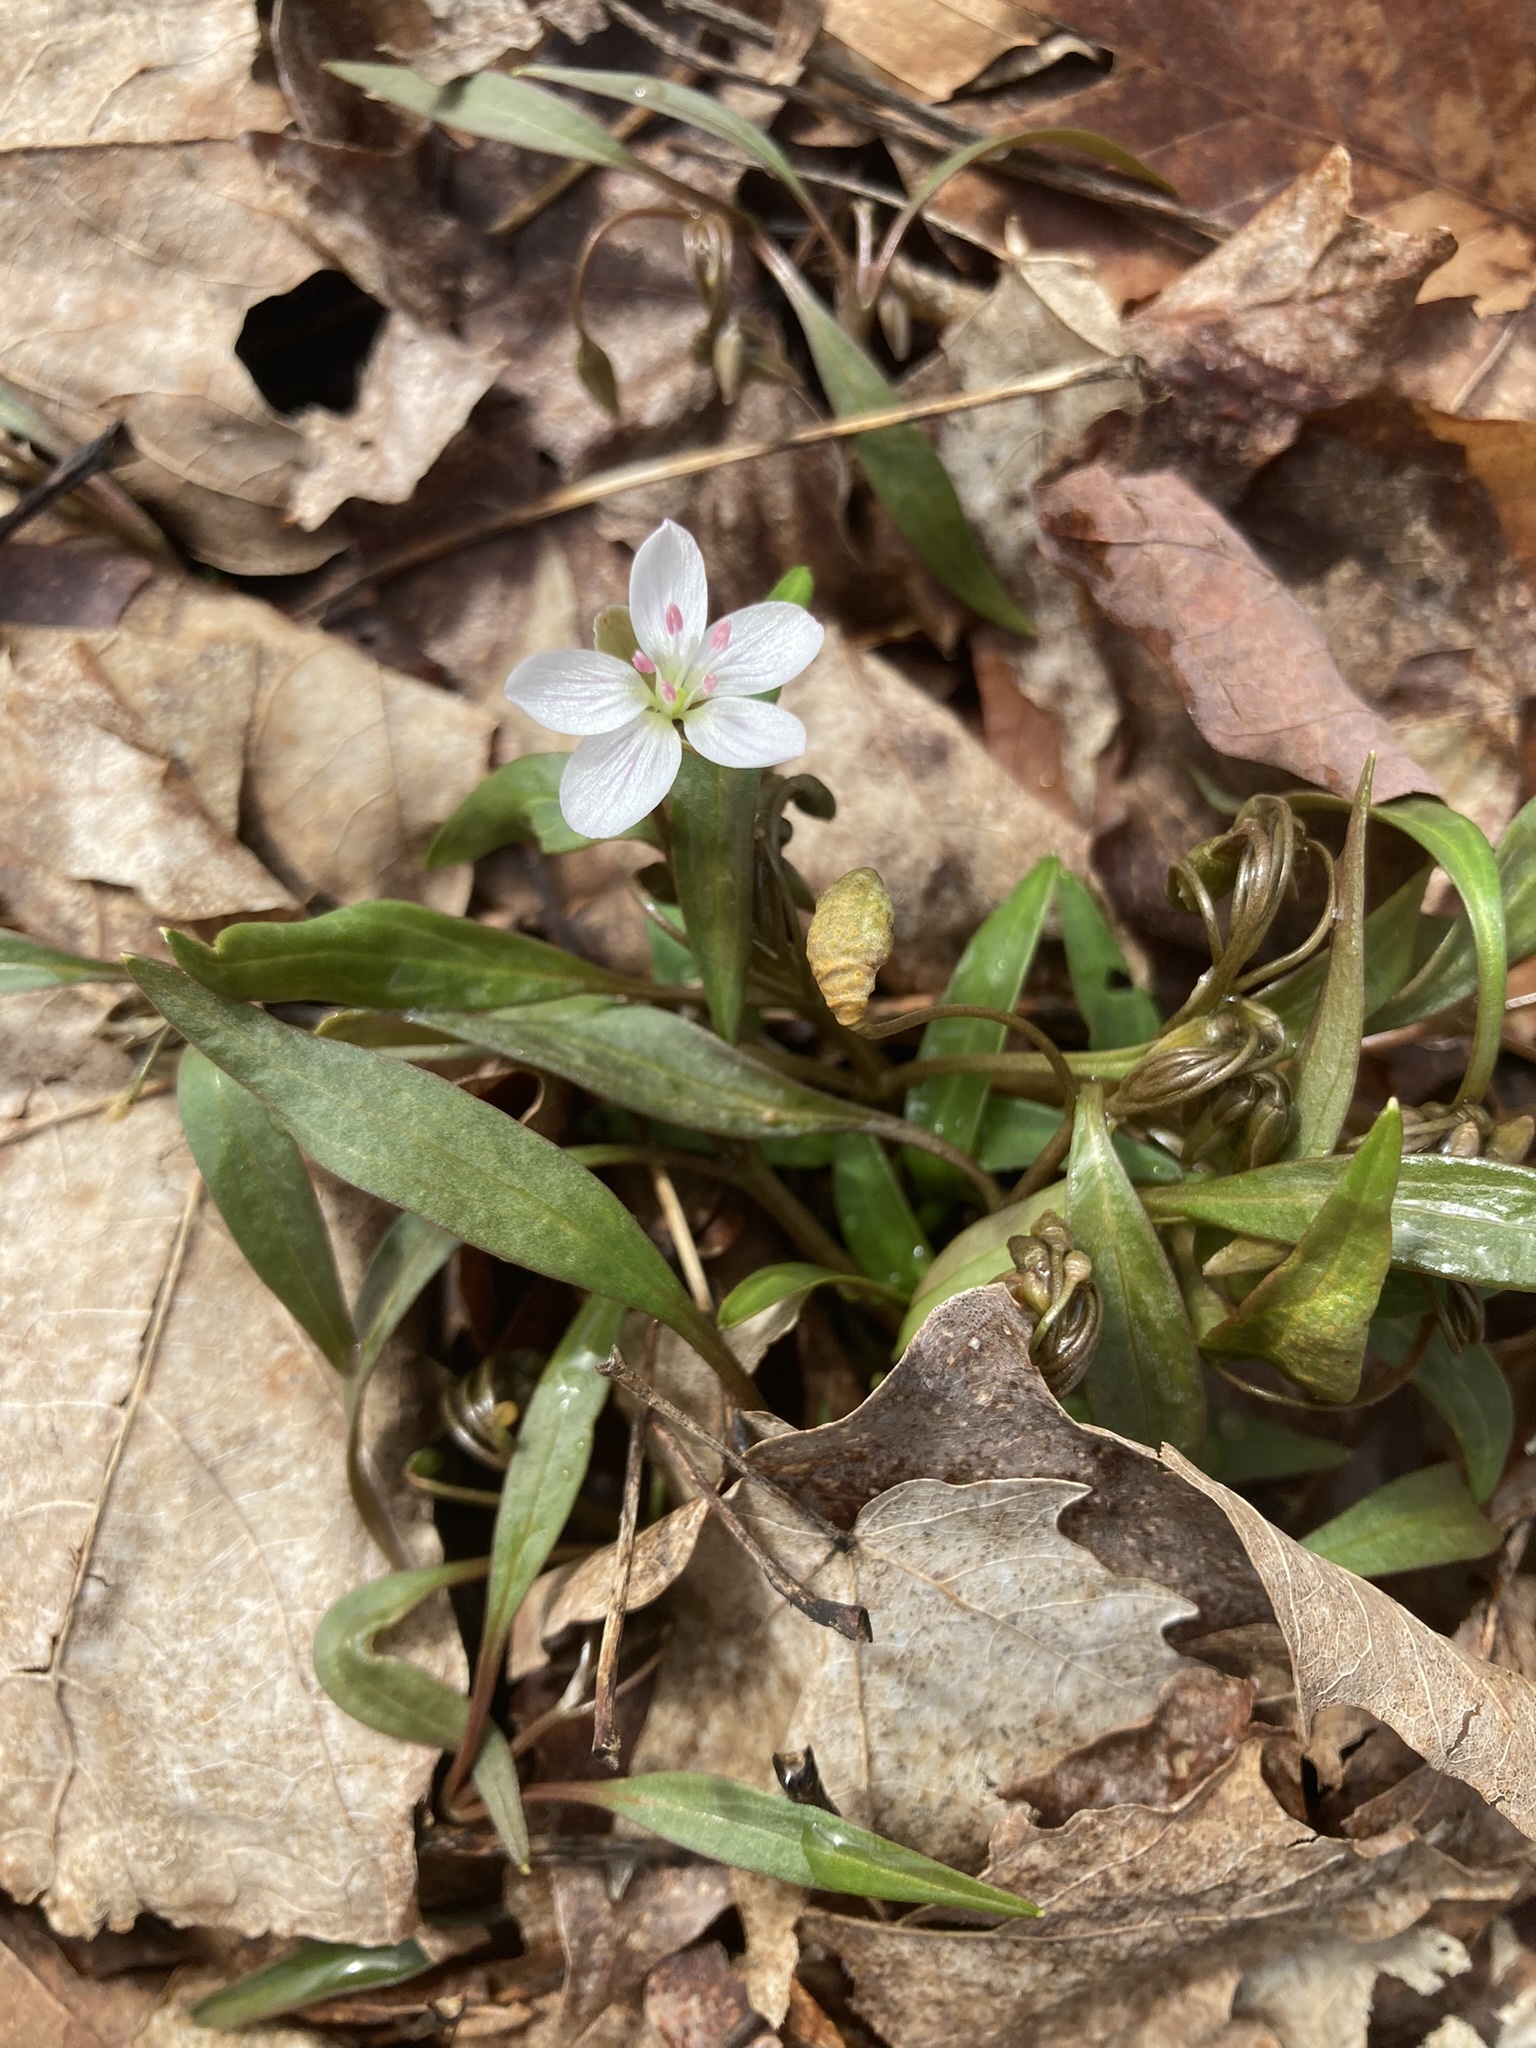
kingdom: Plantae
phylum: Tracheophyta
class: Magnoliopsida
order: Caryophyllales
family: Montiaceae
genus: Claytonia
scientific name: Claytonia virginica
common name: Virginia springbeauty
